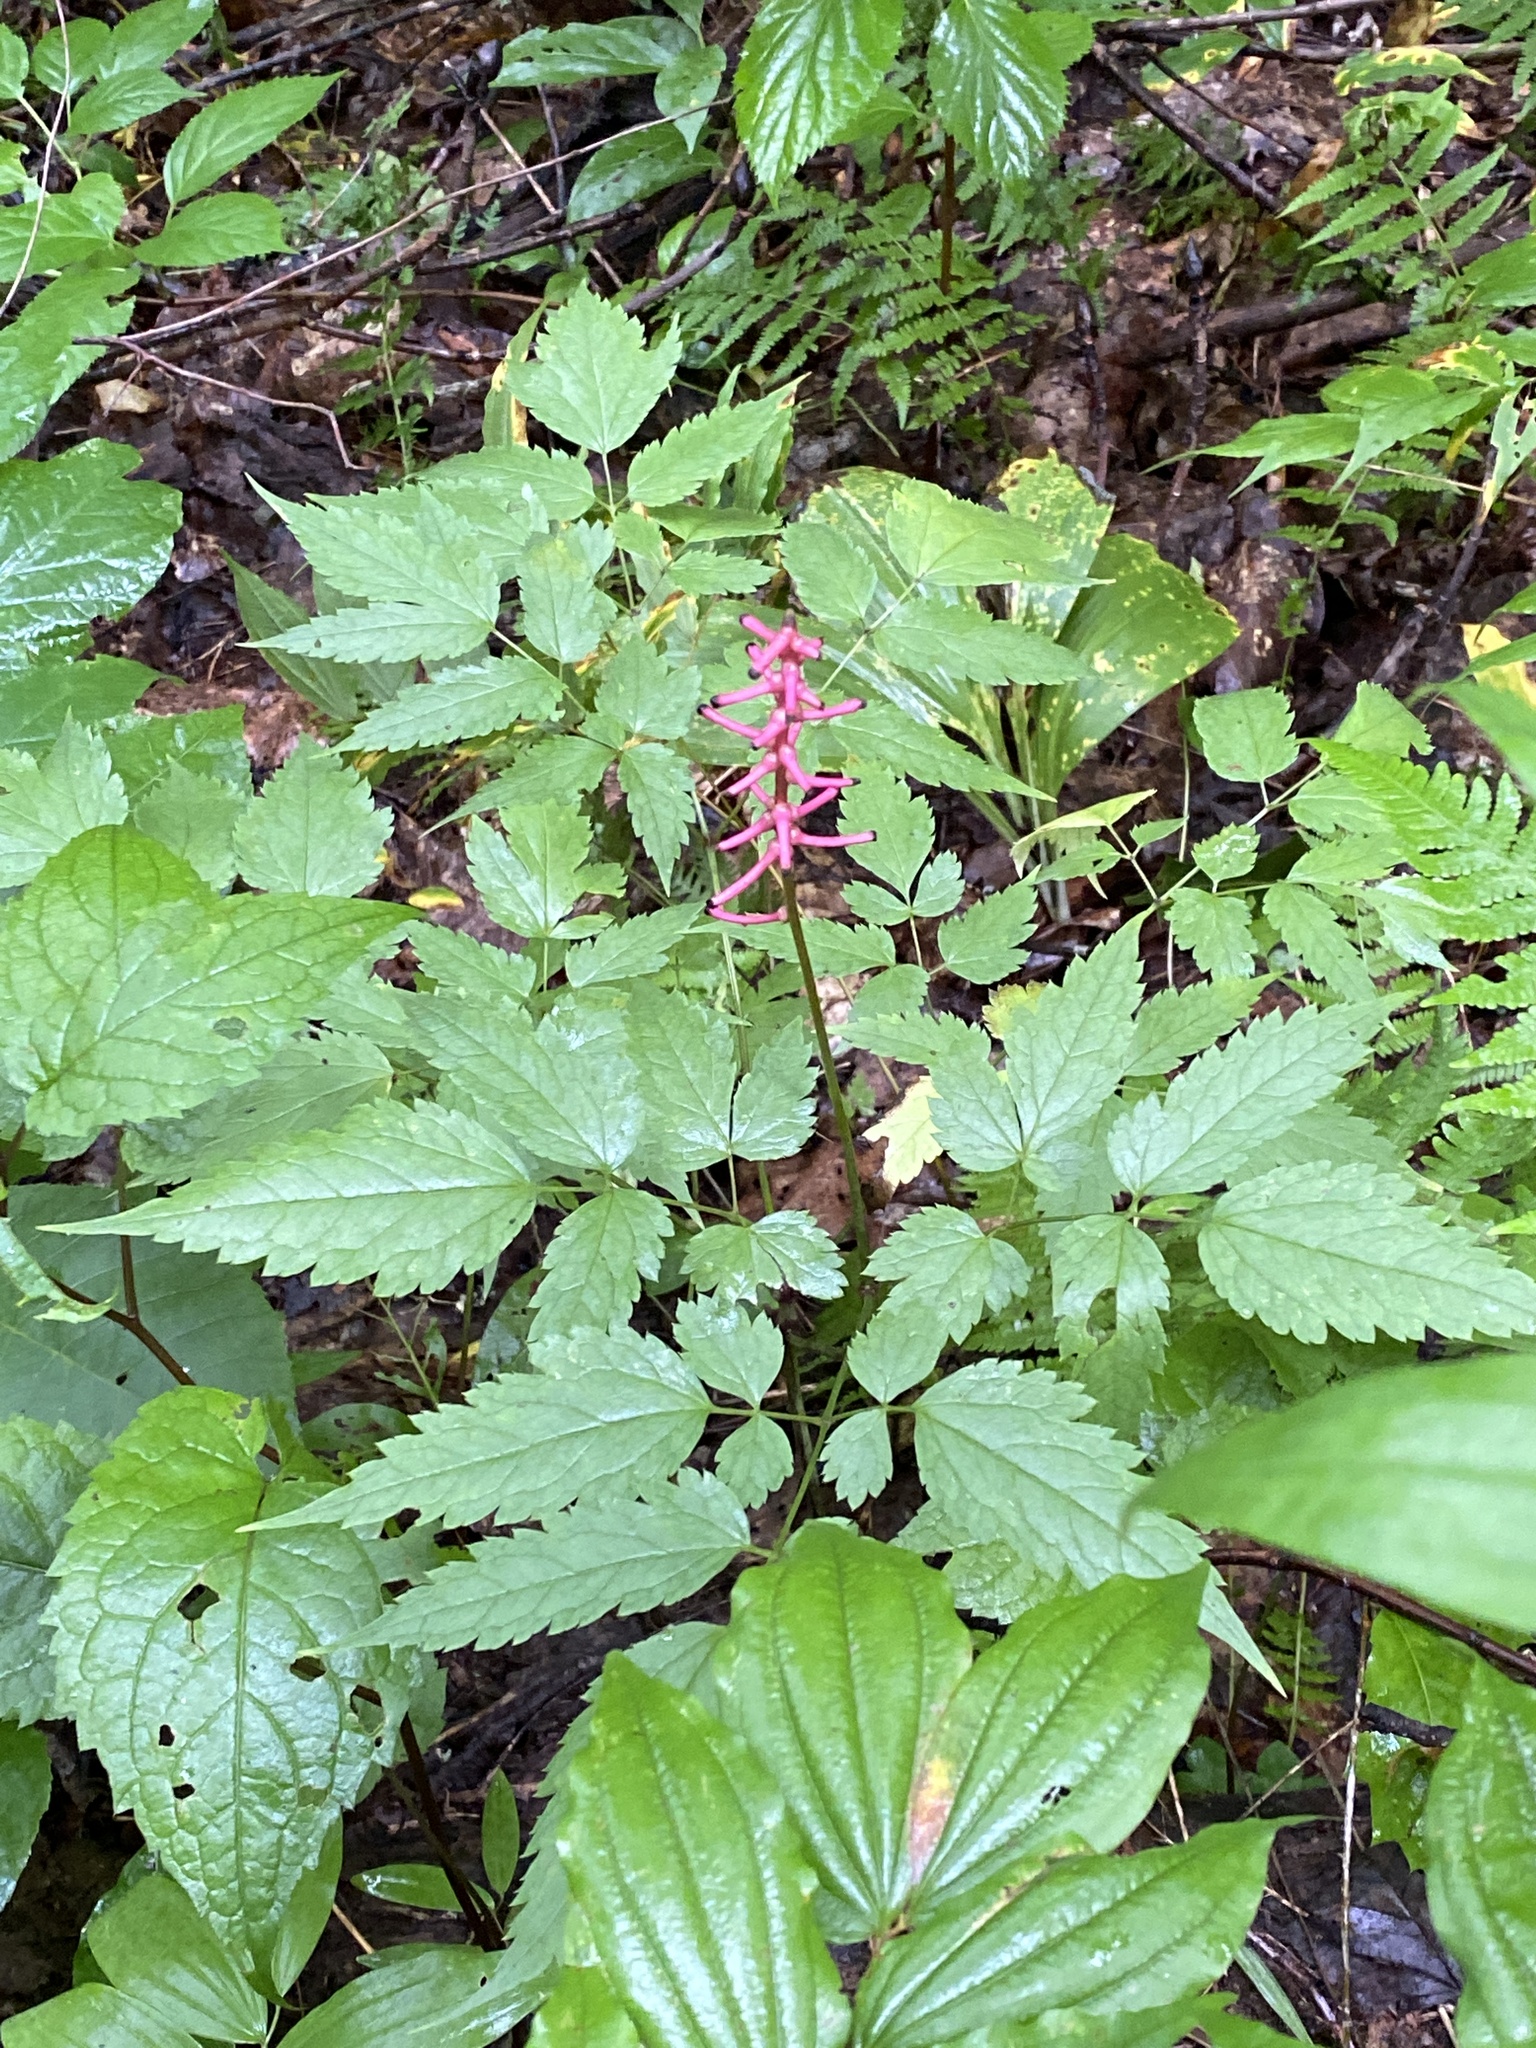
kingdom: Plantae
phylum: Tracheophyta
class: Magnoliopsida
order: Ranunculales
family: Ranunculaceae
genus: Actaea
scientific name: Actaea pachypoda
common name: Doll's-eyes
